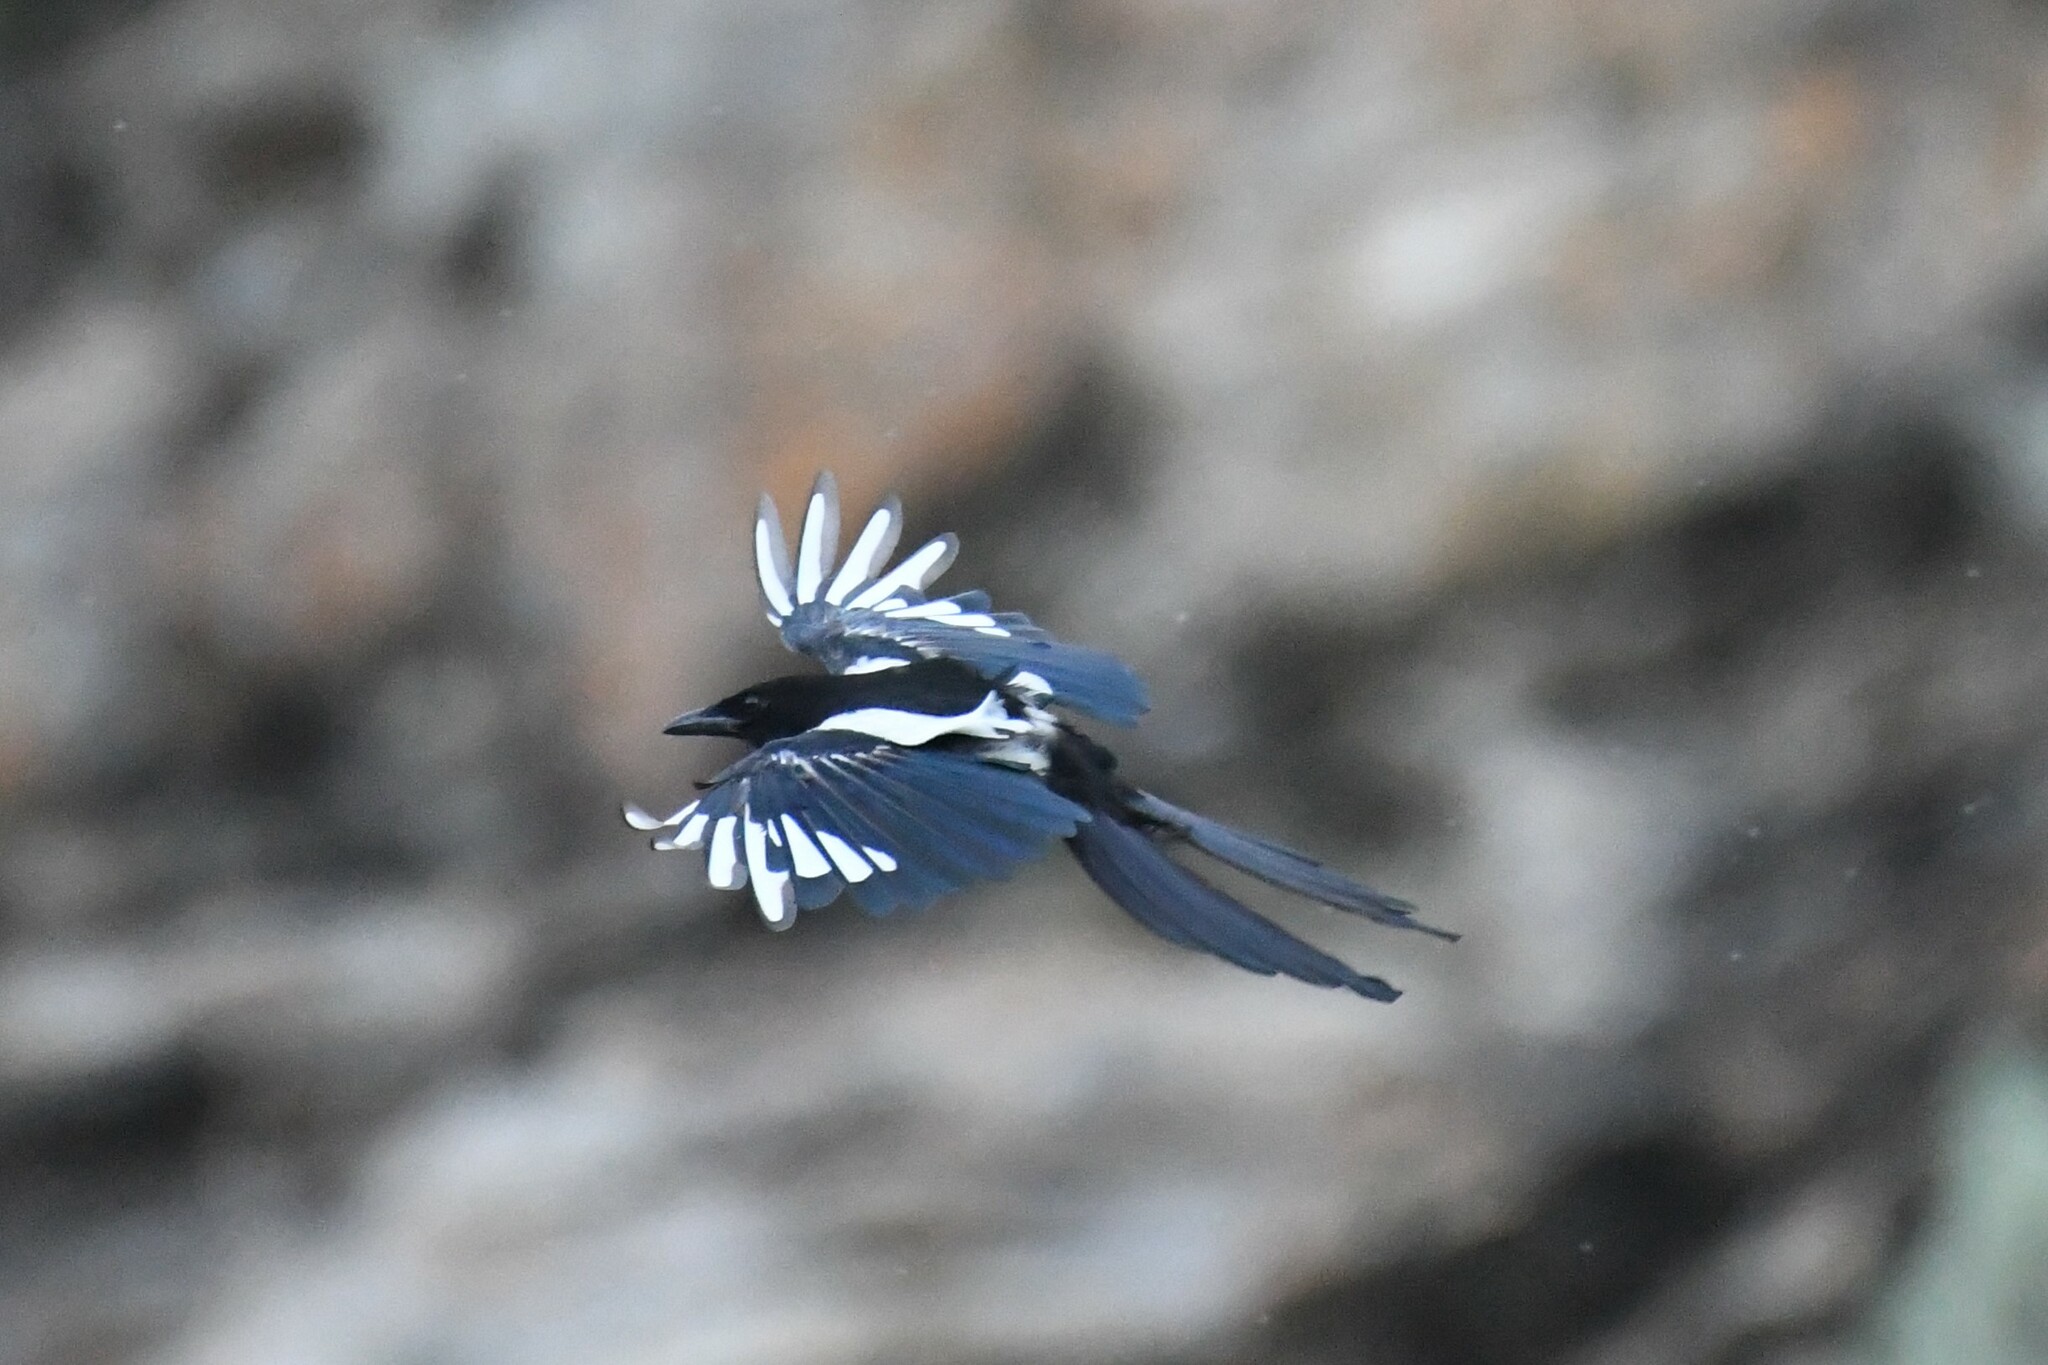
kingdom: Animalia
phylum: Chordata
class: Aves
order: Passeriformes
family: Corvidae
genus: Pica
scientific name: Pica hudsonia
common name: Black-billed magpie
